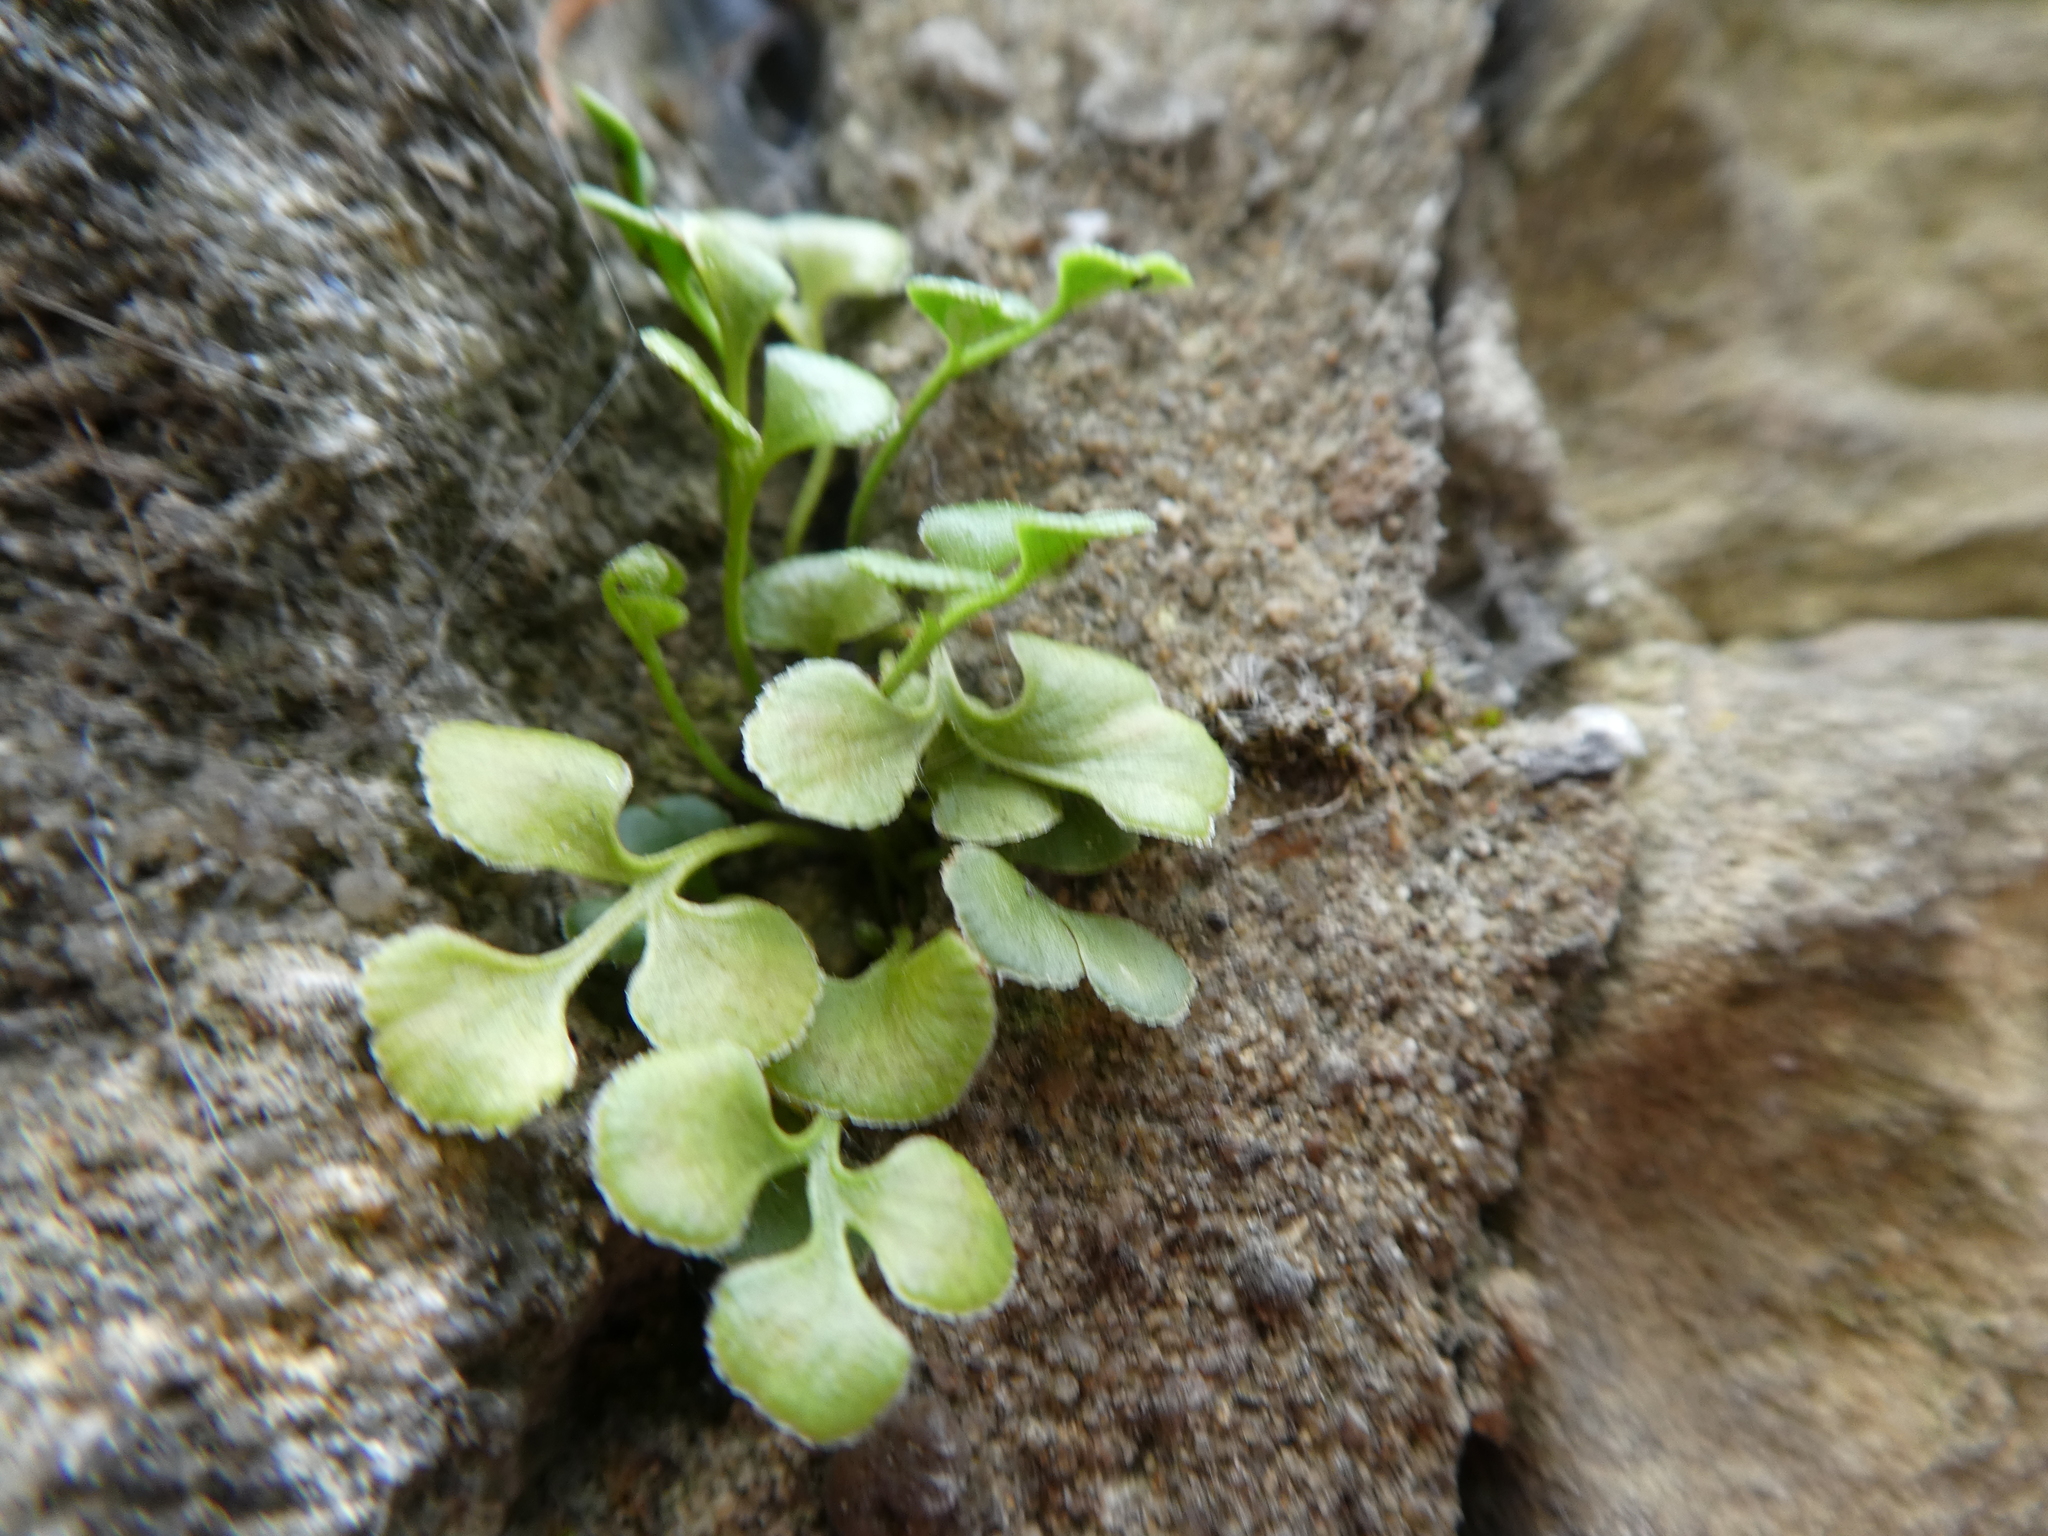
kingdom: Plantae
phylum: Tracheophyta
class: Polypodiopsida
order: Polypodiales
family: Aspleniaceae
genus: Asplenium
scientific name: Asplenium ruta-muraria
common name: Wall-rue
